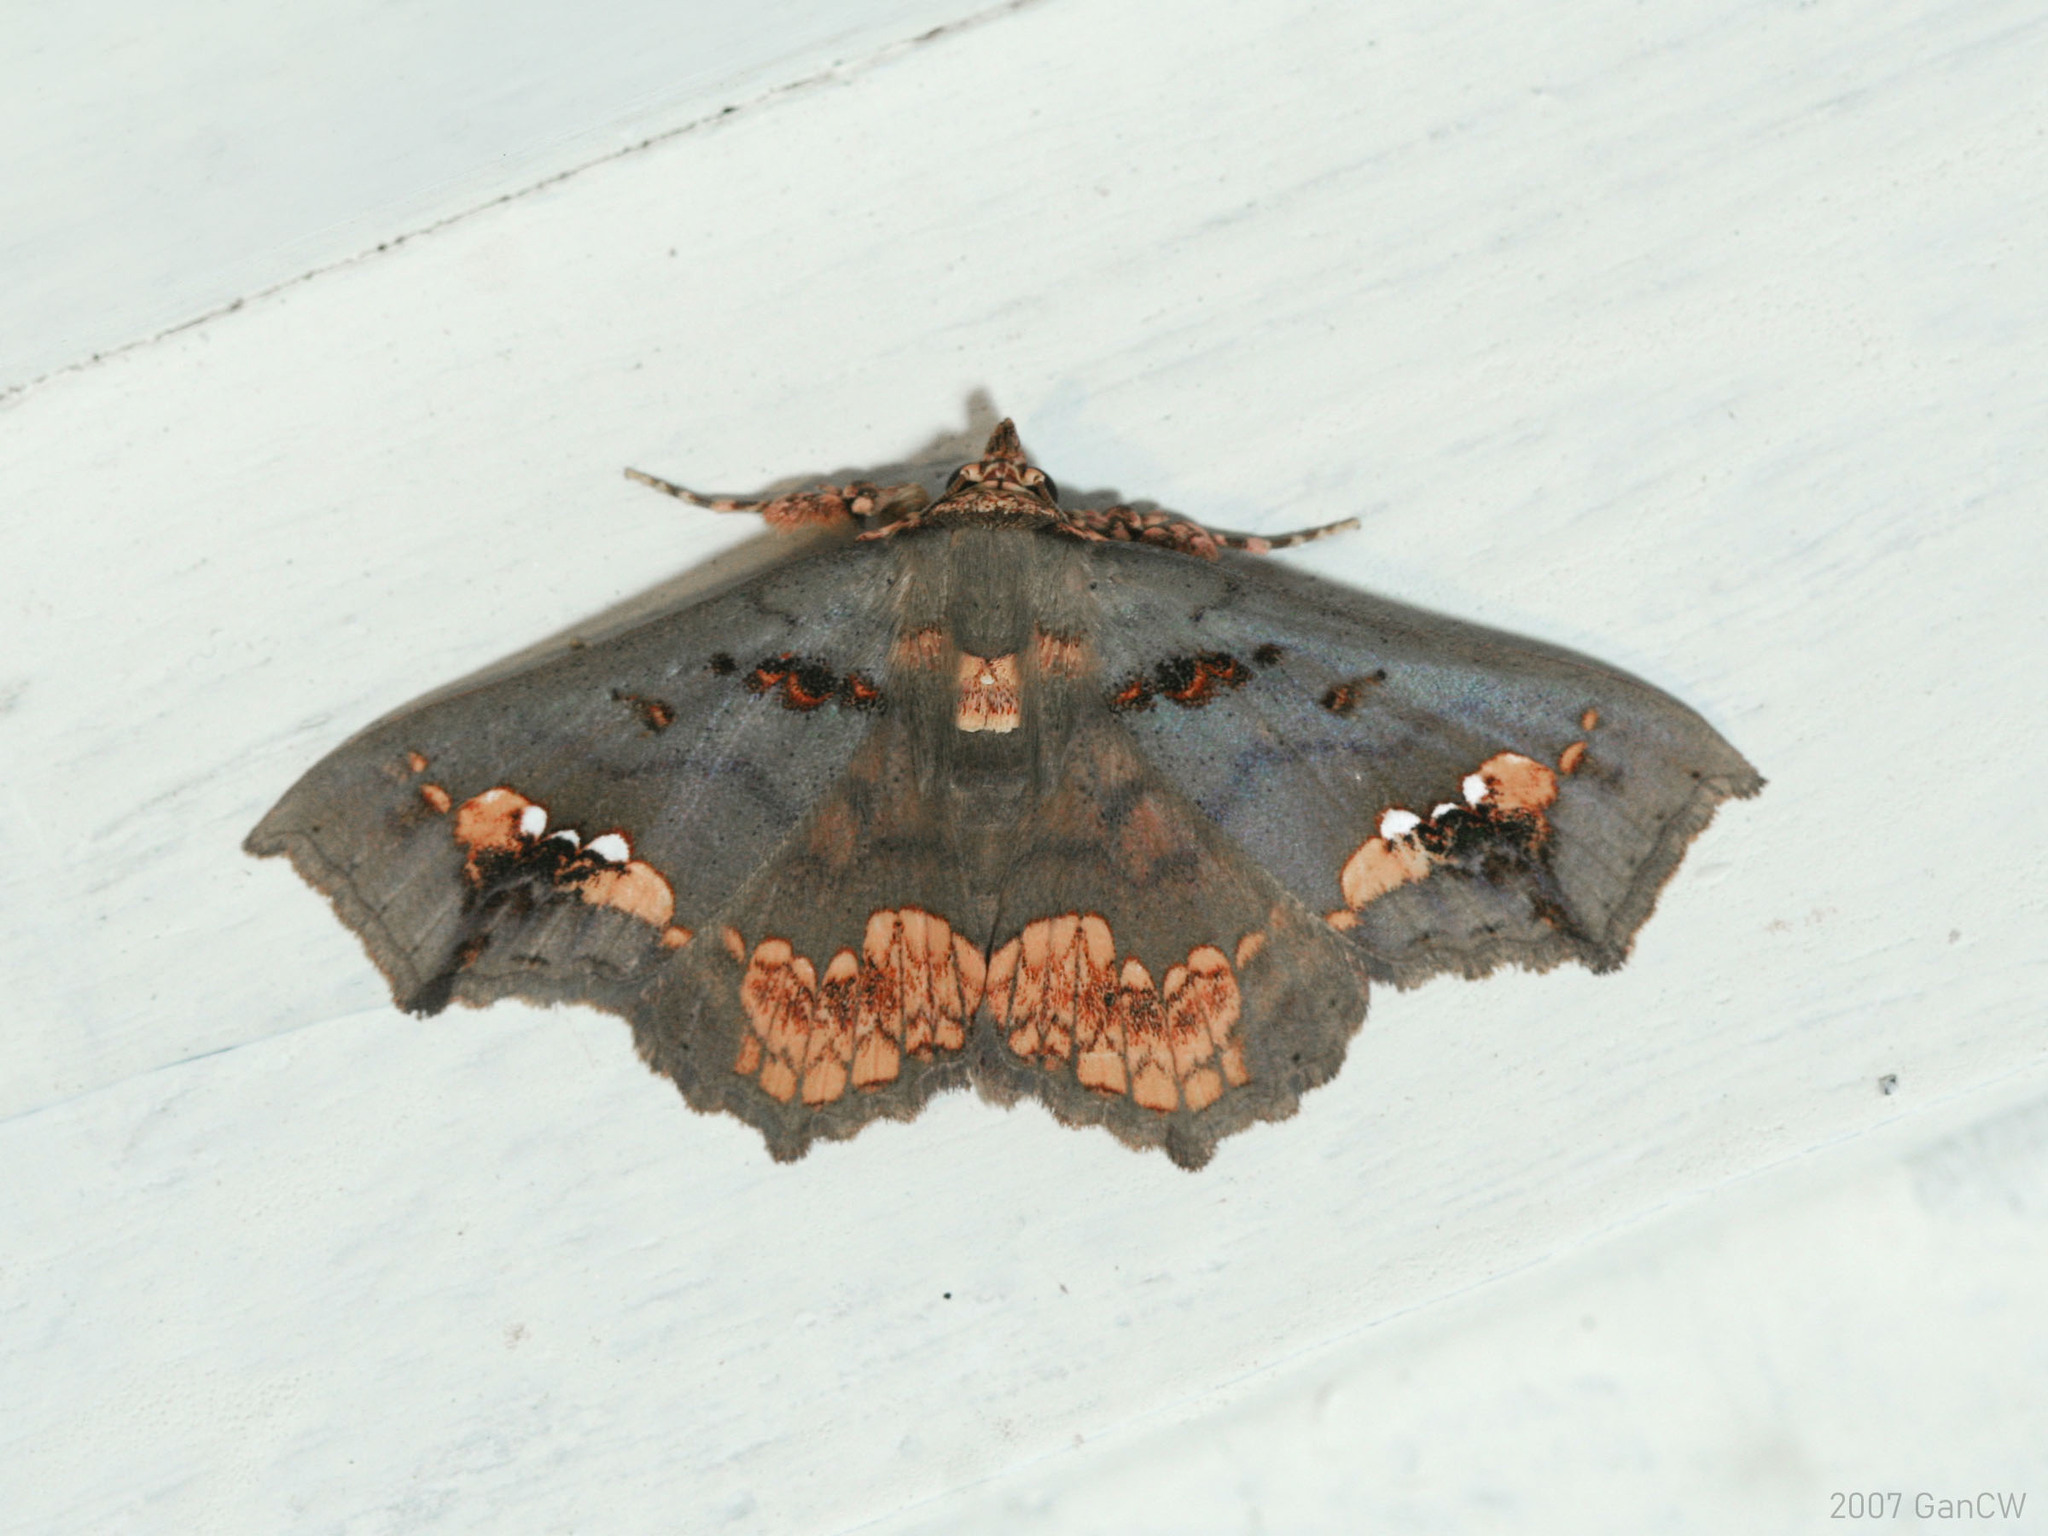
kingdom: Animalia
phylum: Arthropoda
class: Insecta
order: Lepidoptera
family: Erebidae
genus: Lopharthrum
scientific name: Lopharthrum comprimens
